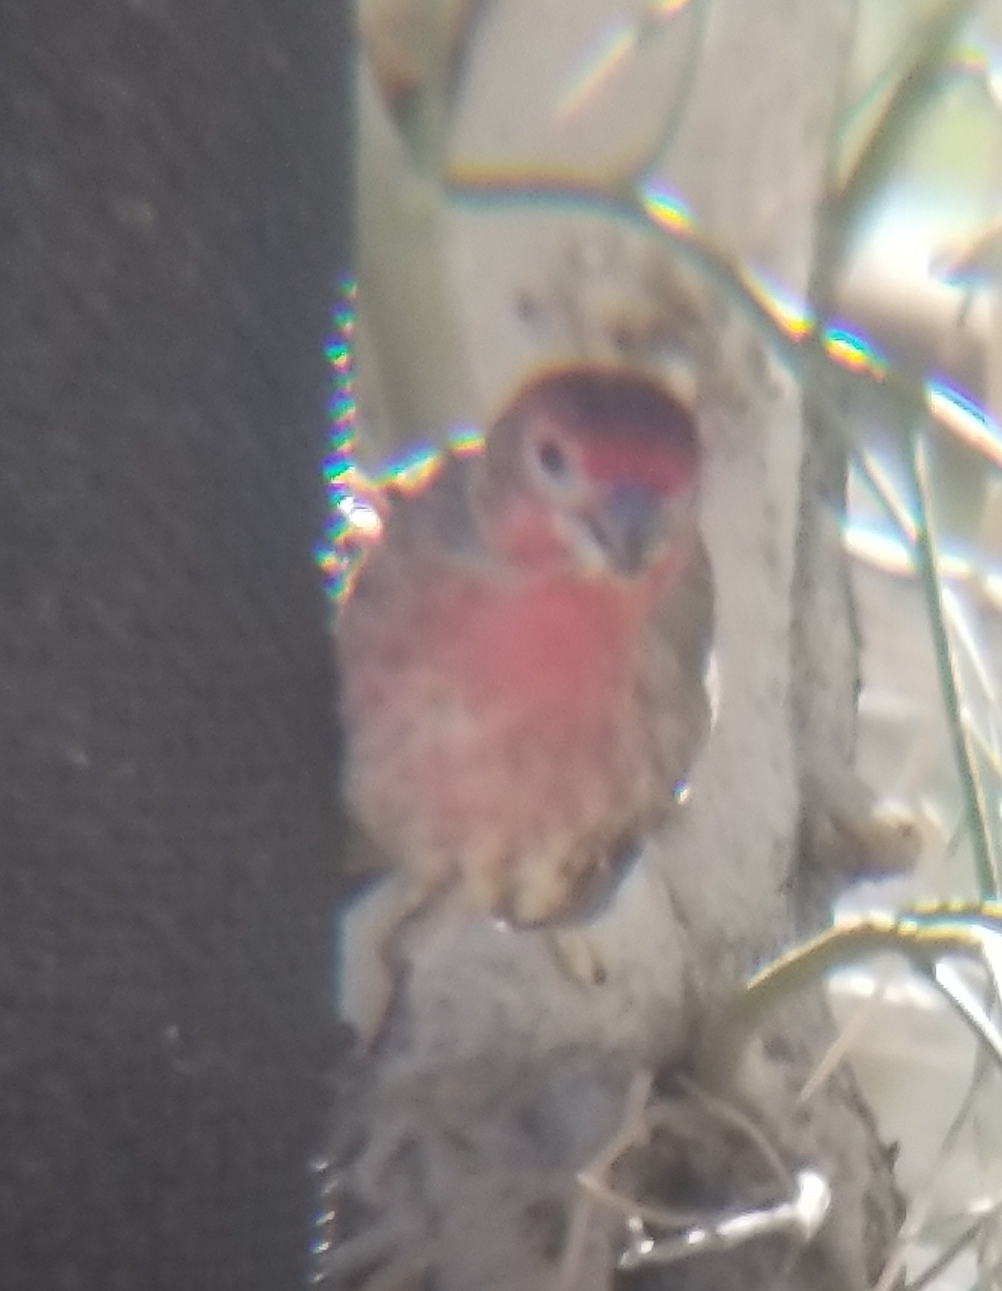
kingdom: Animalia
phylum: Chordata
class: Aves
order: Passeriformes
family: Fringillidae
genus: Haemorhous
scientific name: Haemorhous mexicanus
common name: House finch
